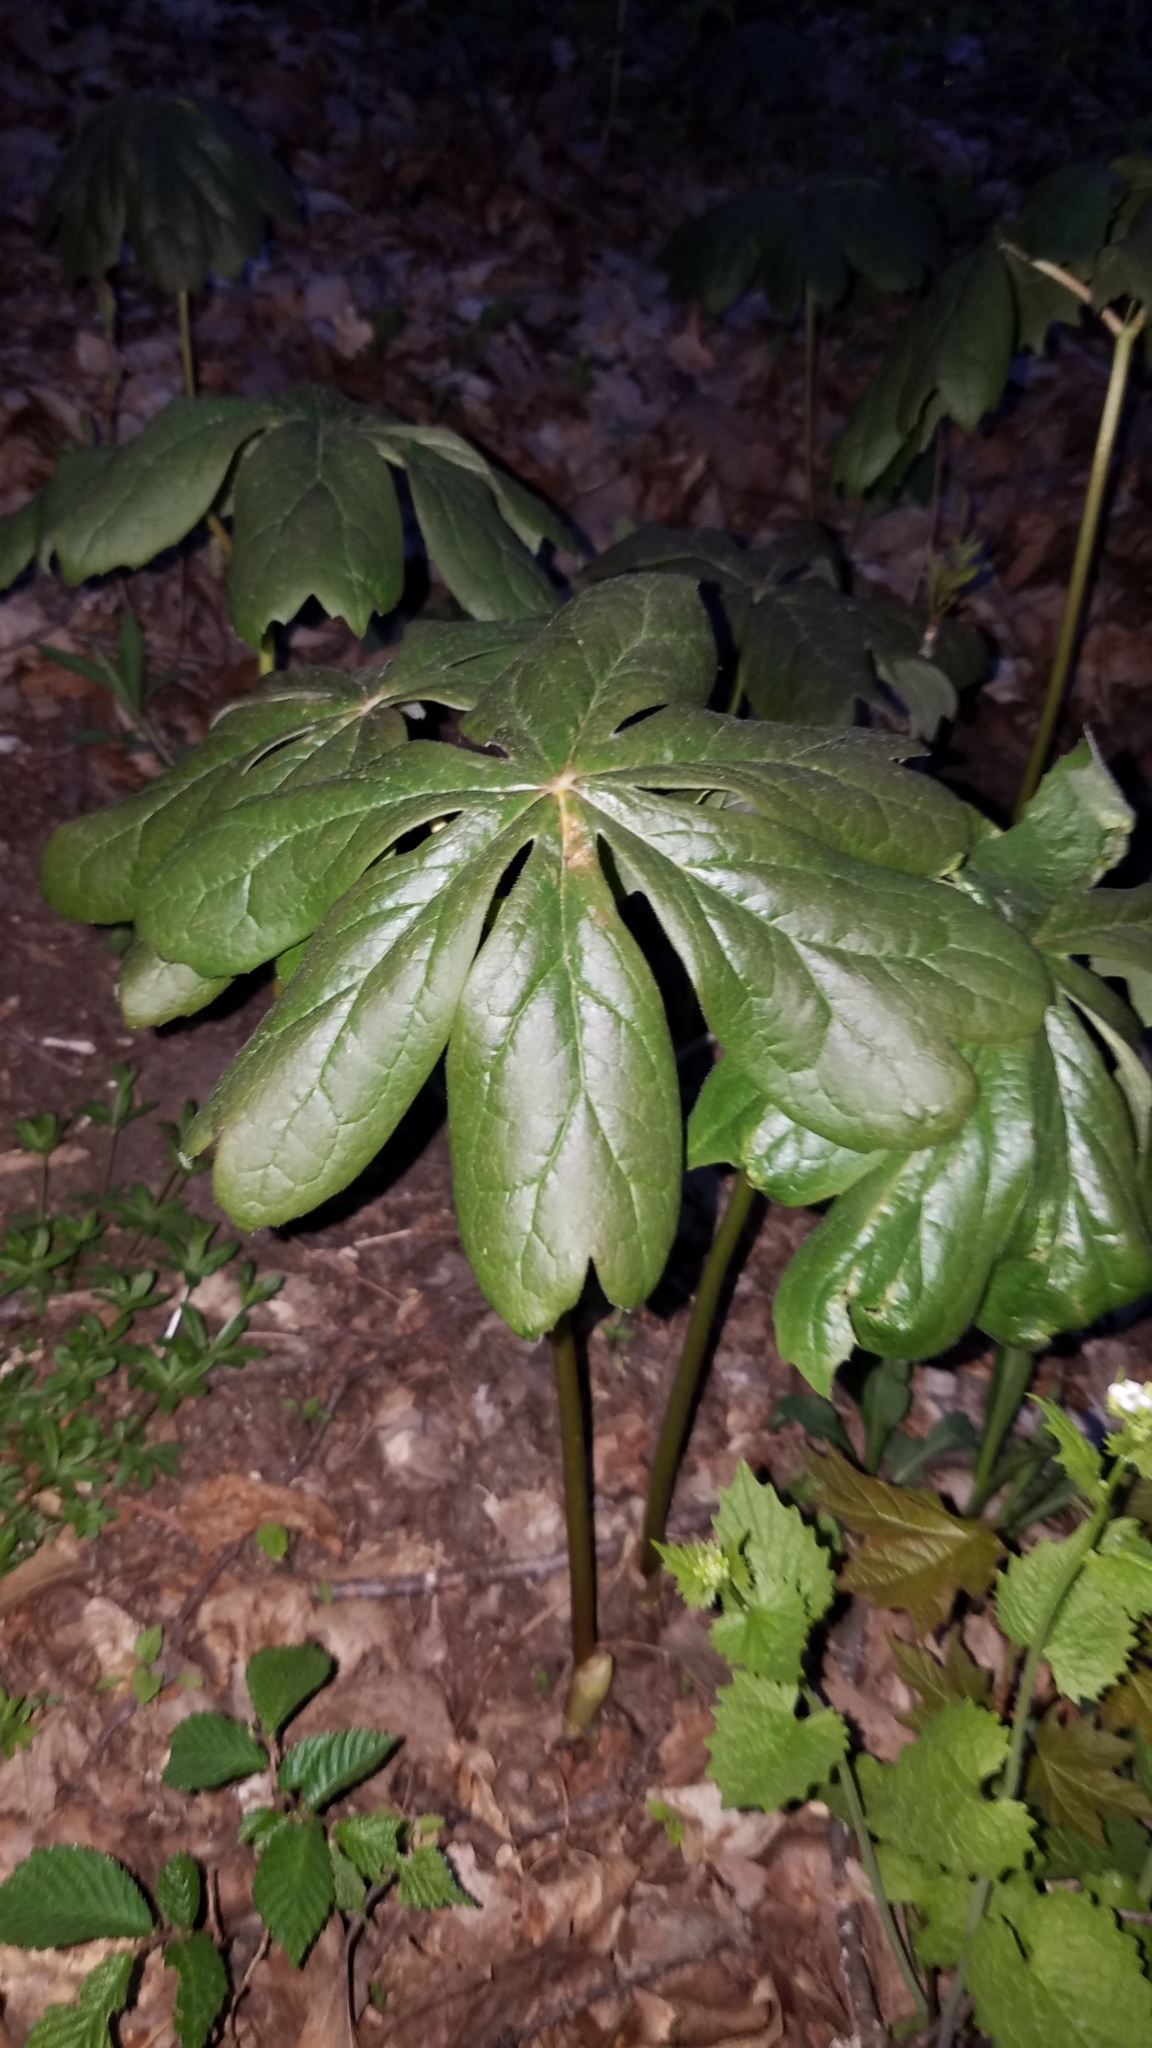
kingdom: Plantae
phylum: Tracheophyta
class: Magnoliopsida
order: Ranunculales
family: Berberidaceae
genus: Podophyllum
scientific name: Podophyllum peltatum
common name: Wild mandrake
